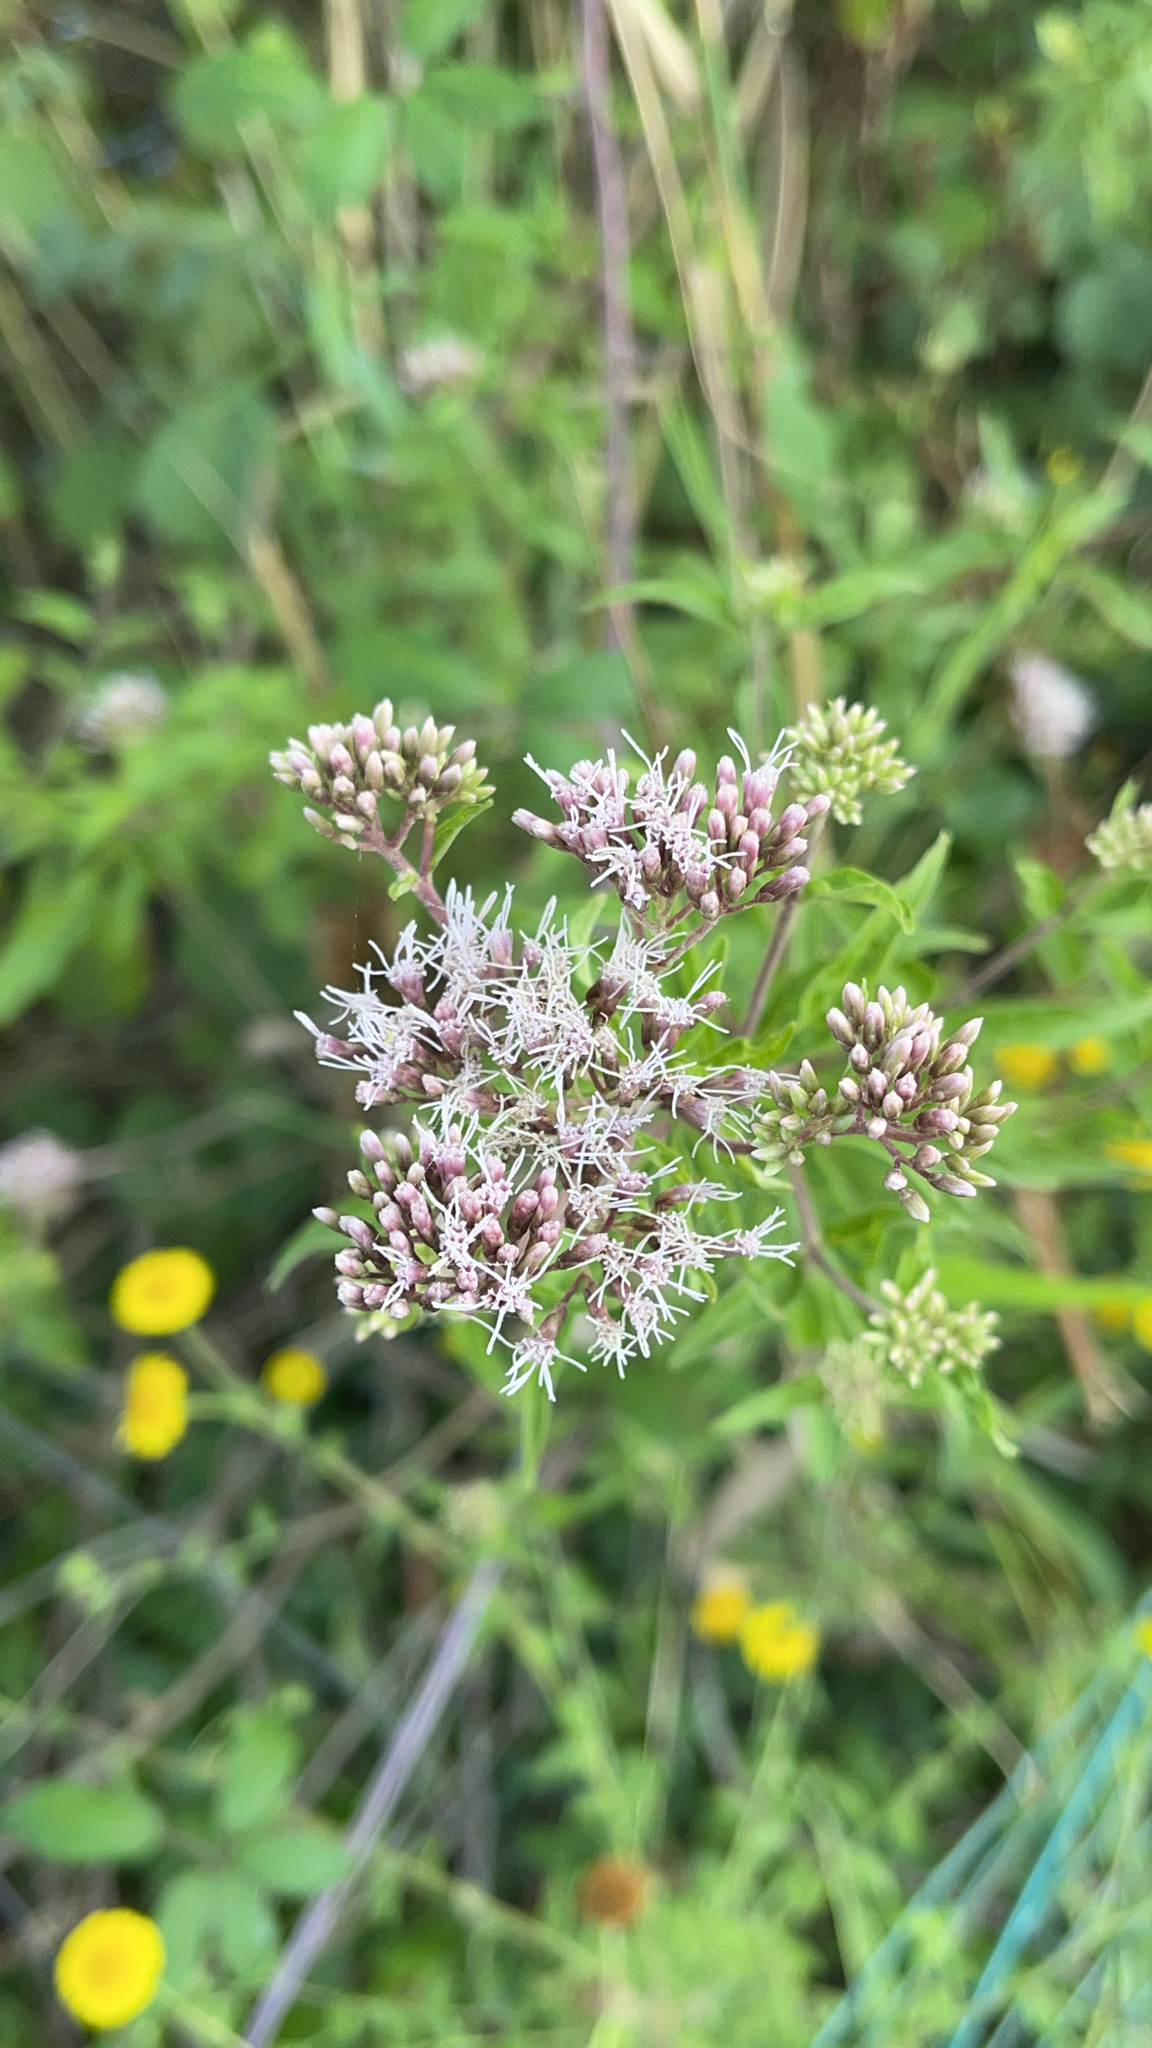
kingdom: Plantae
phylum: Tracheophyta
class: Magnoliopsida
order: Asterales
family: Asteraceae
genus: Eupatorium
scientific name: Eupatorium cannabinum
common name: Hemp-agrimony
